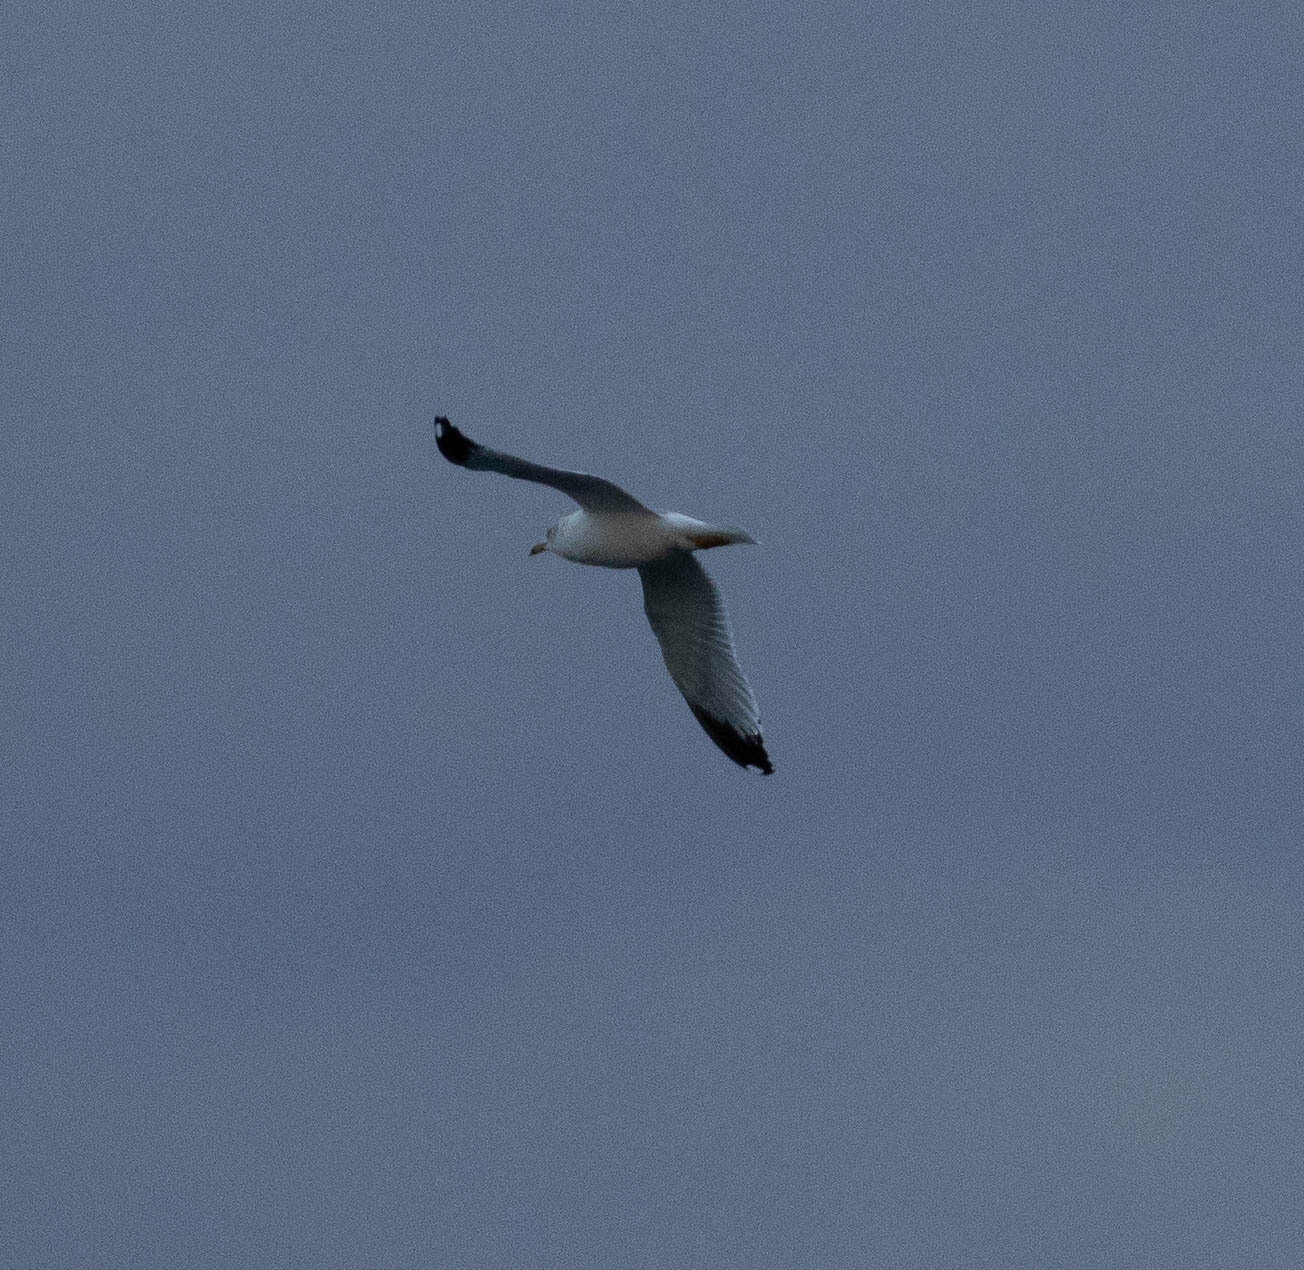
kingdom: Animalia
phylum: Chordata
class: Aves
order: Charadriiformes
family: Laridae
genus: Larus
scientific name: Larus delawarensis
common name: Ring-billed gull
